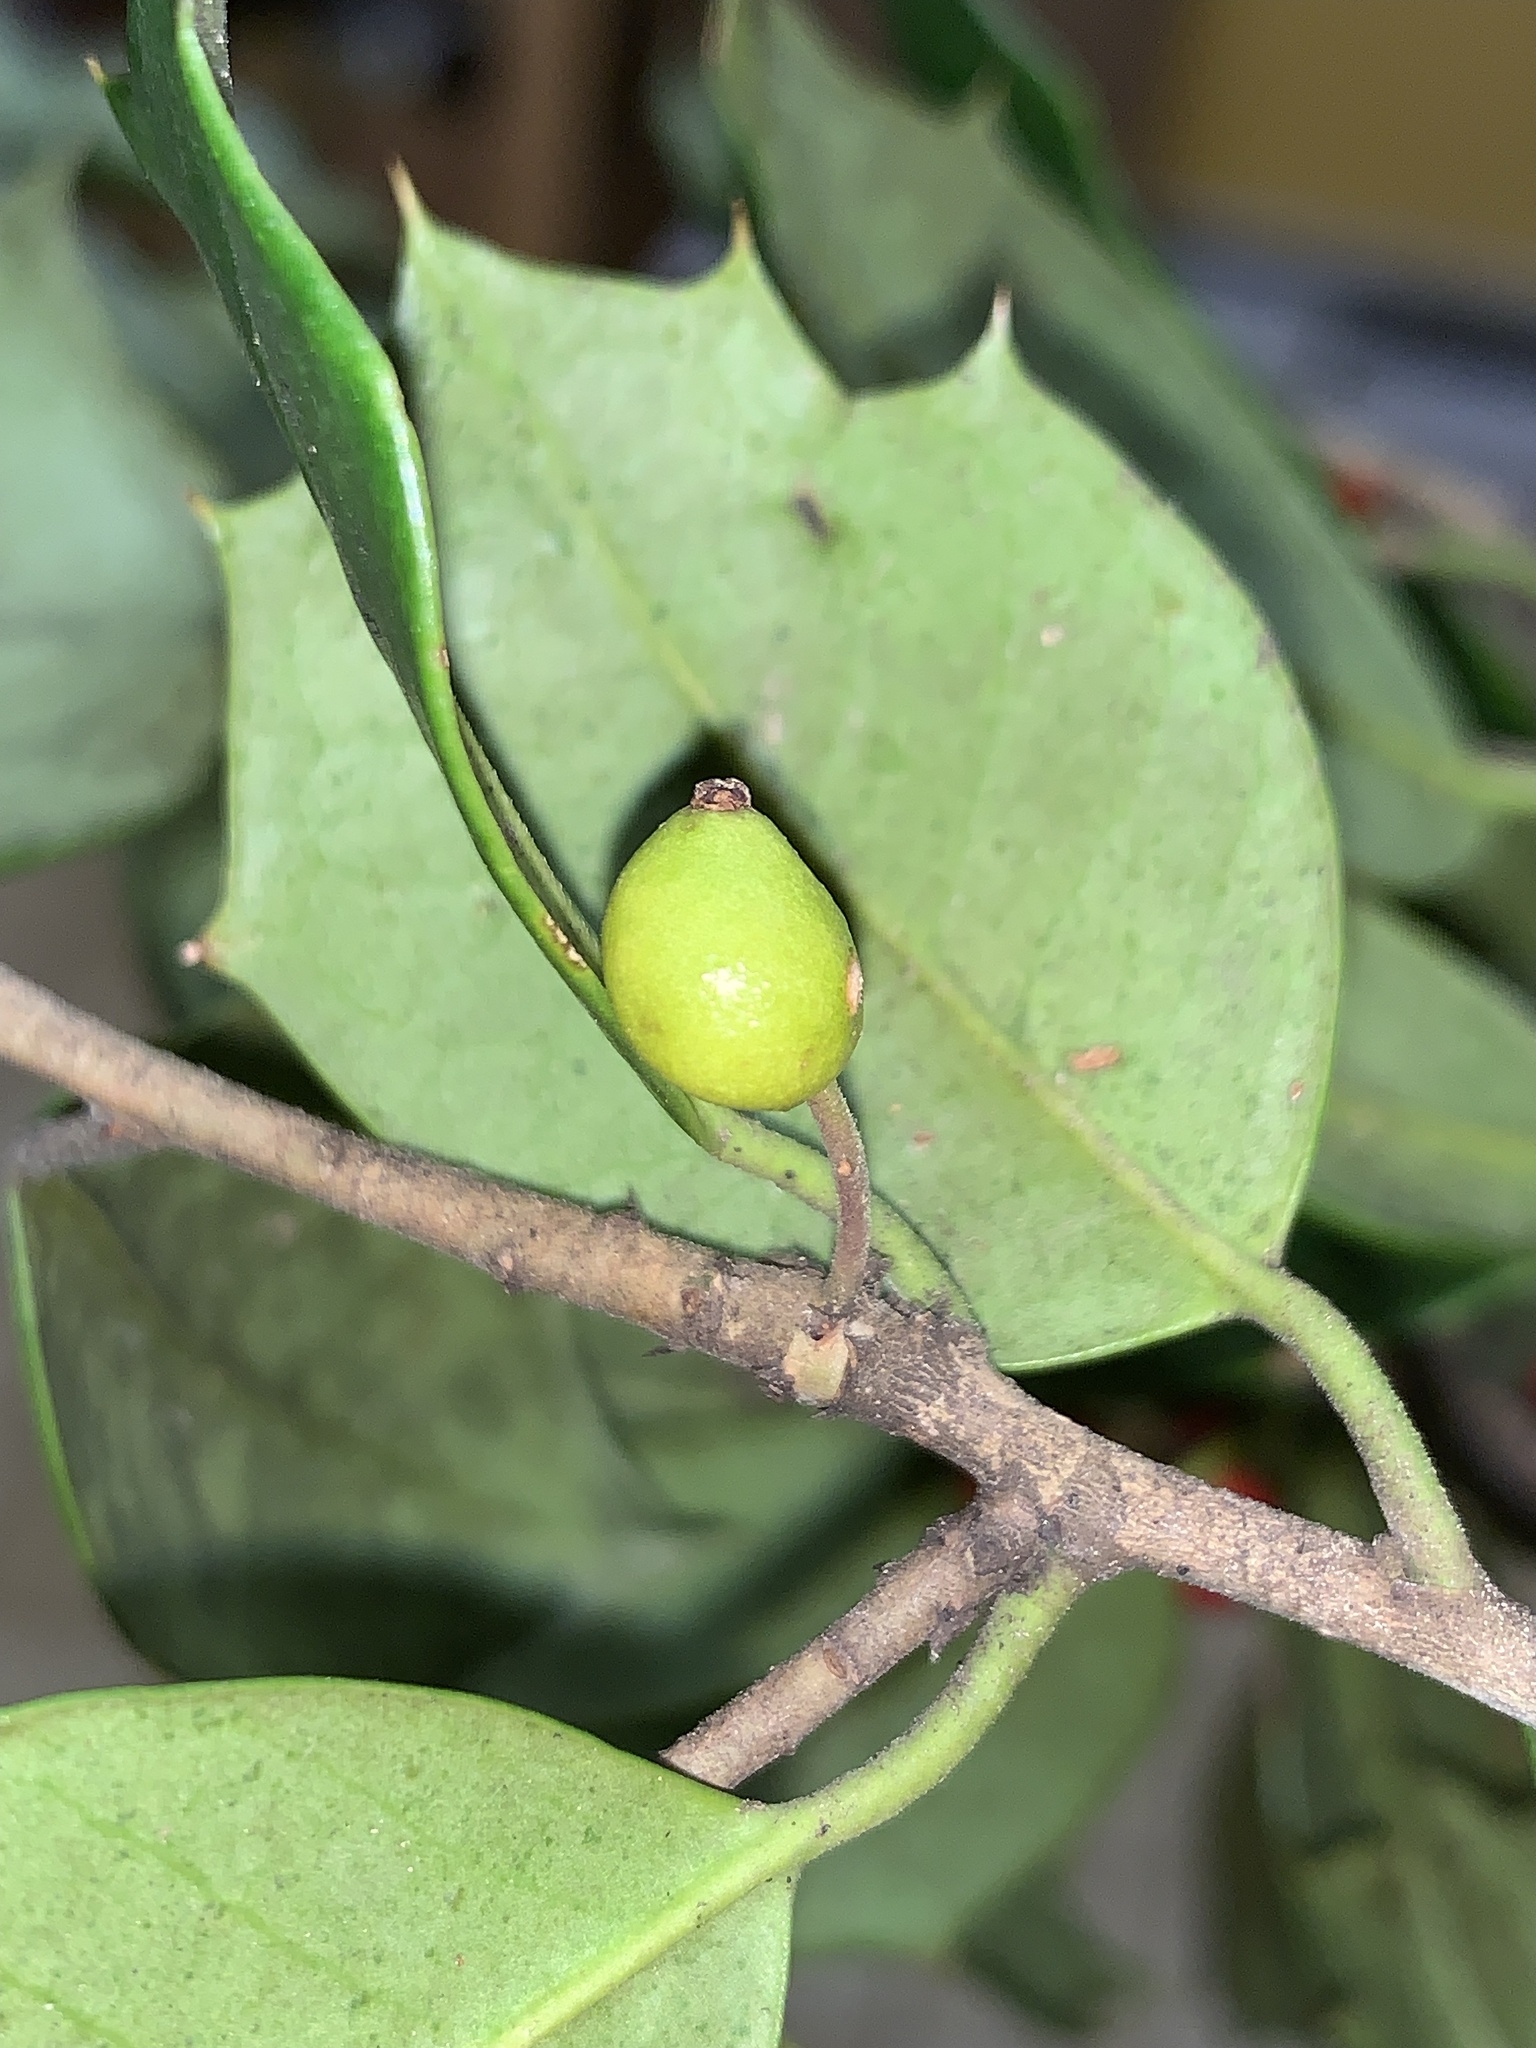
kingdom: Animalia
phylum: Arthropoda
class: Insecta
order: Diptera
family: Cecidomyiidae
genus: Asphondylia
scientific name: Asphondylia ilicicola
